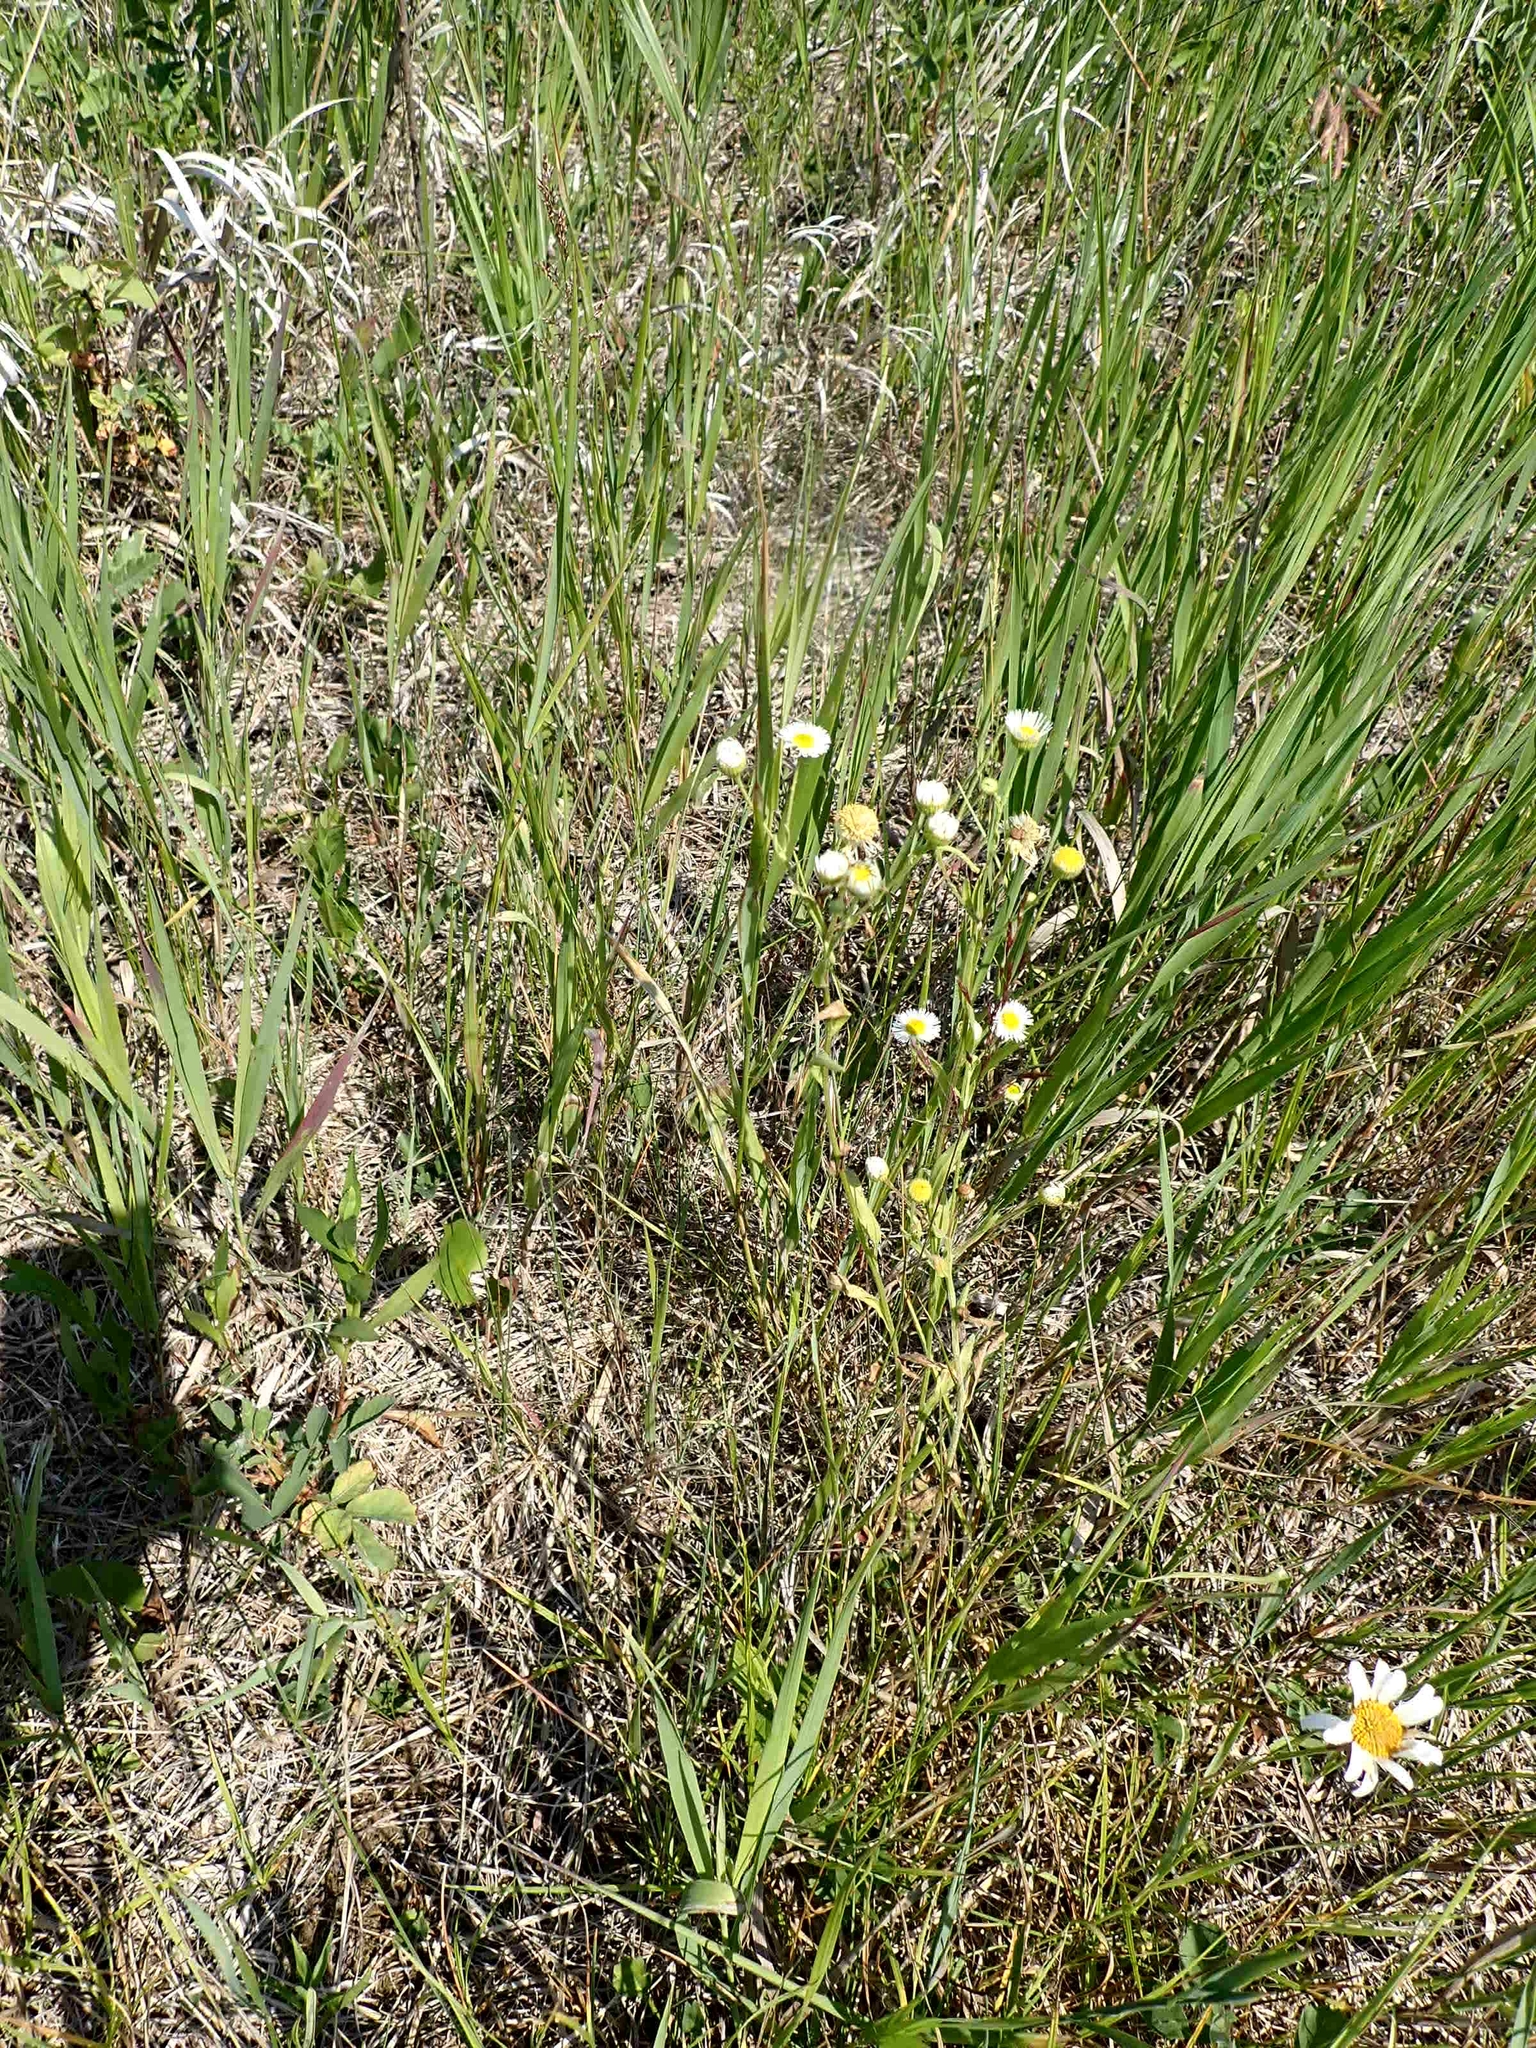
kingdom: Plantae
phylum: Tracheophyta
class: Magnoliopsida
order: Asterales
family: Asteraceae
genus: Erigeron
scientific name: Erigeron strigosus
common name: Common eastern fleabane
